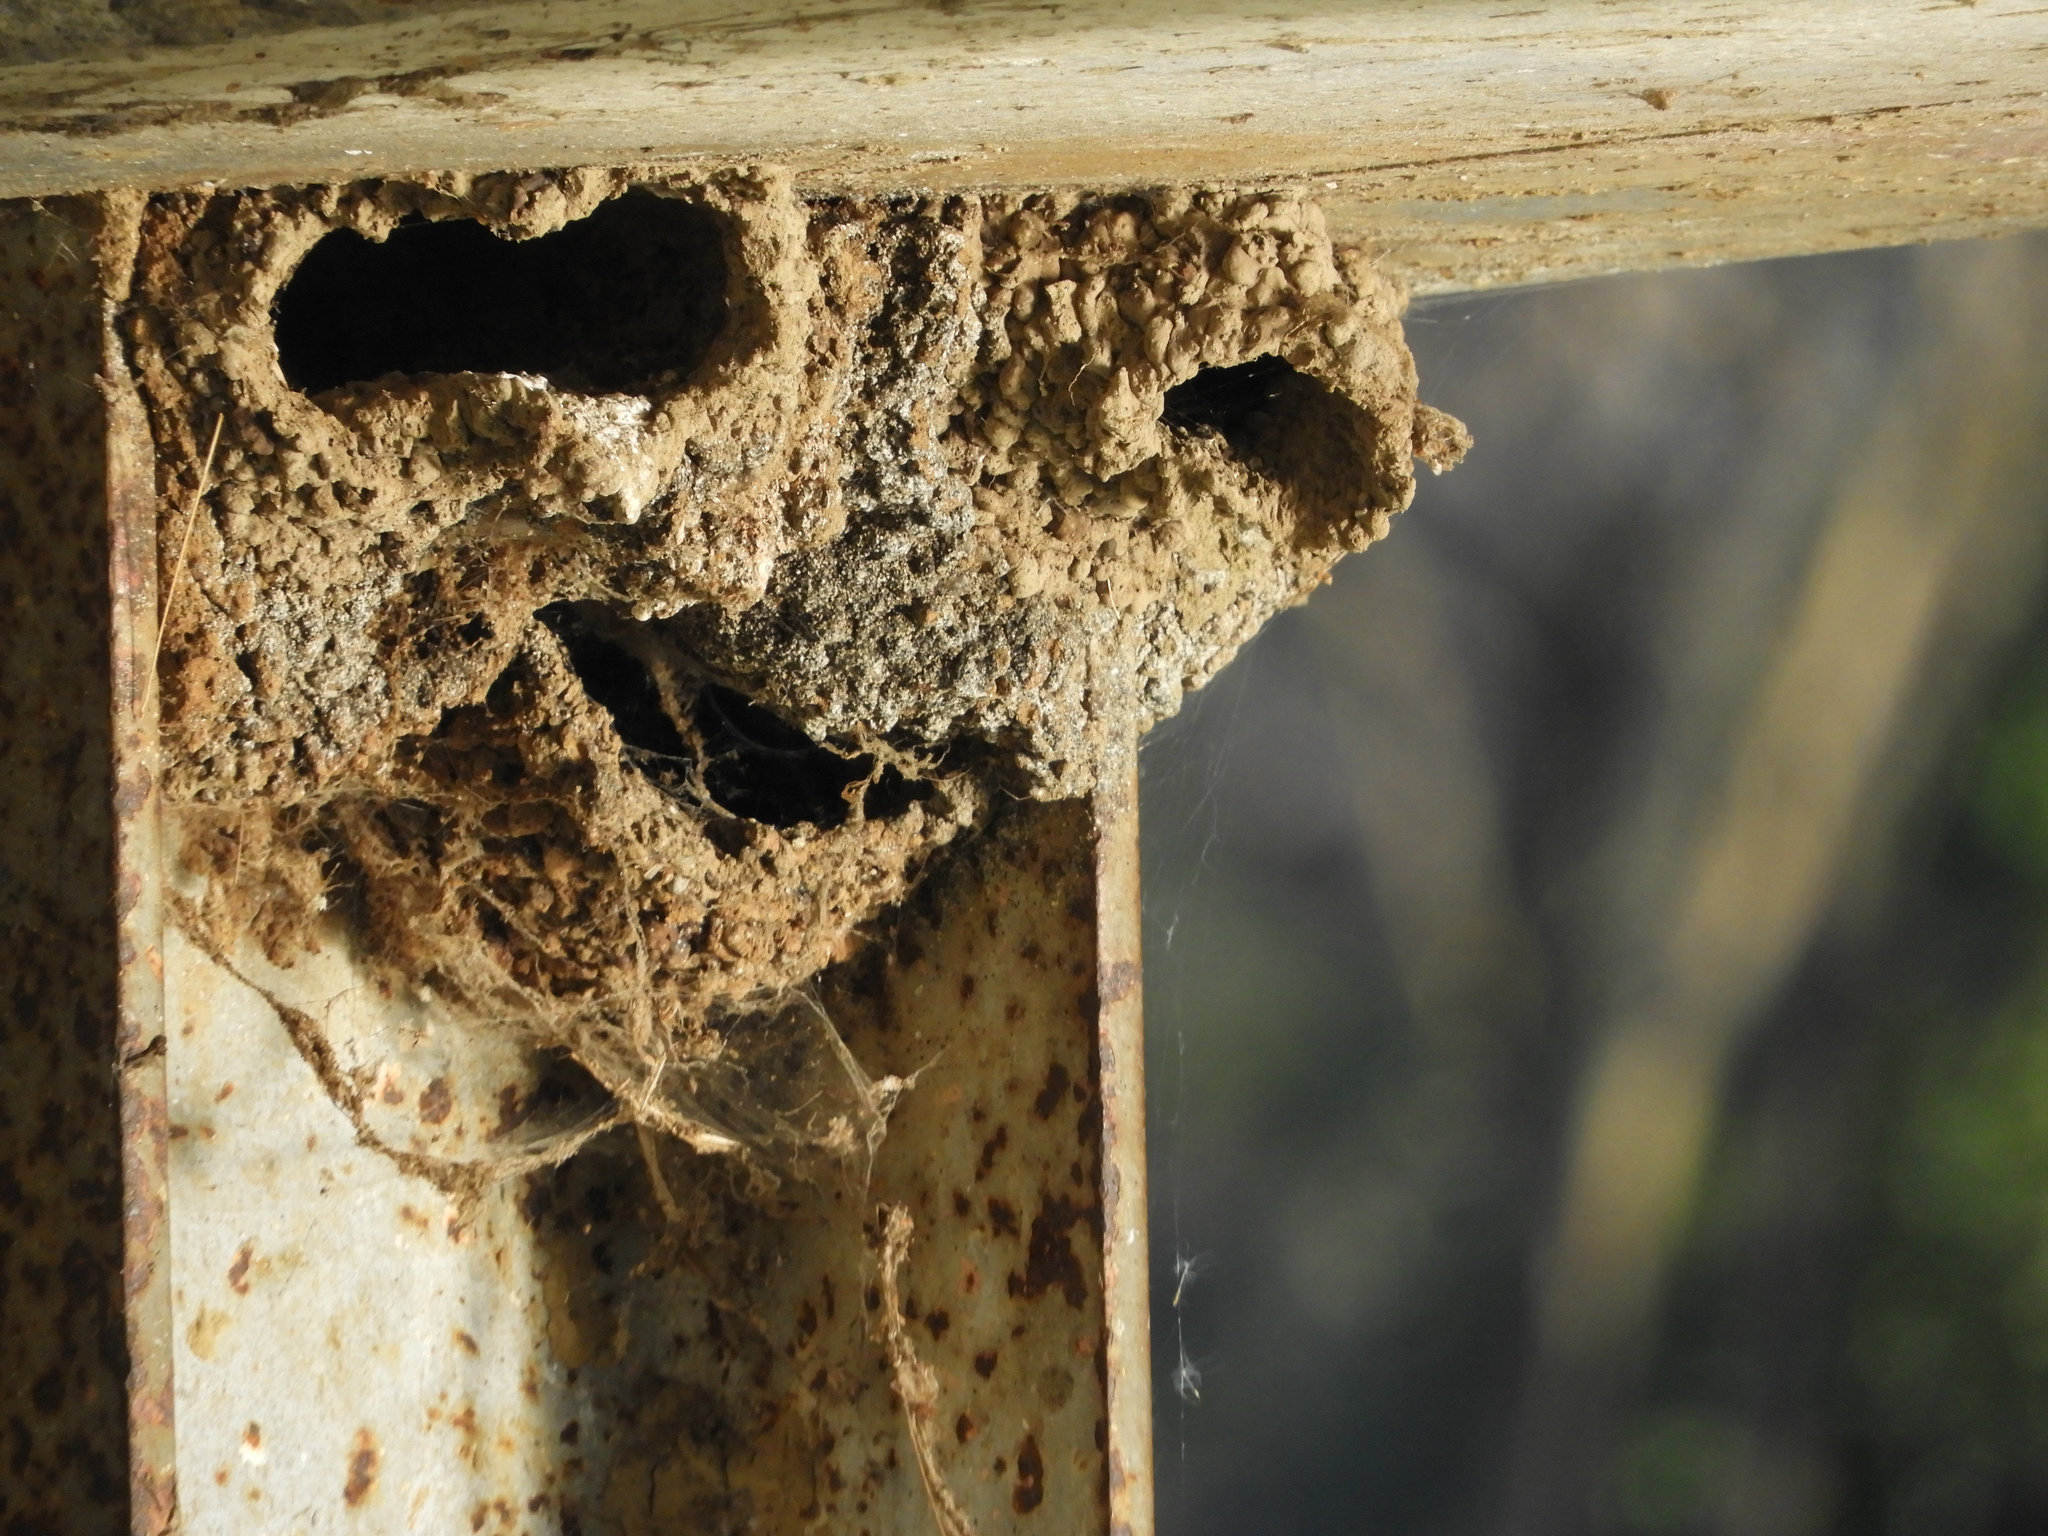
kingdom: Animalia
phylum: Chordata
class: Aves
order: Passeriformes
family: Hirundinidae
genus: Petrochelidon
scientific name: Petrochelidon pyrrhonota
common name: American cliff swallow
